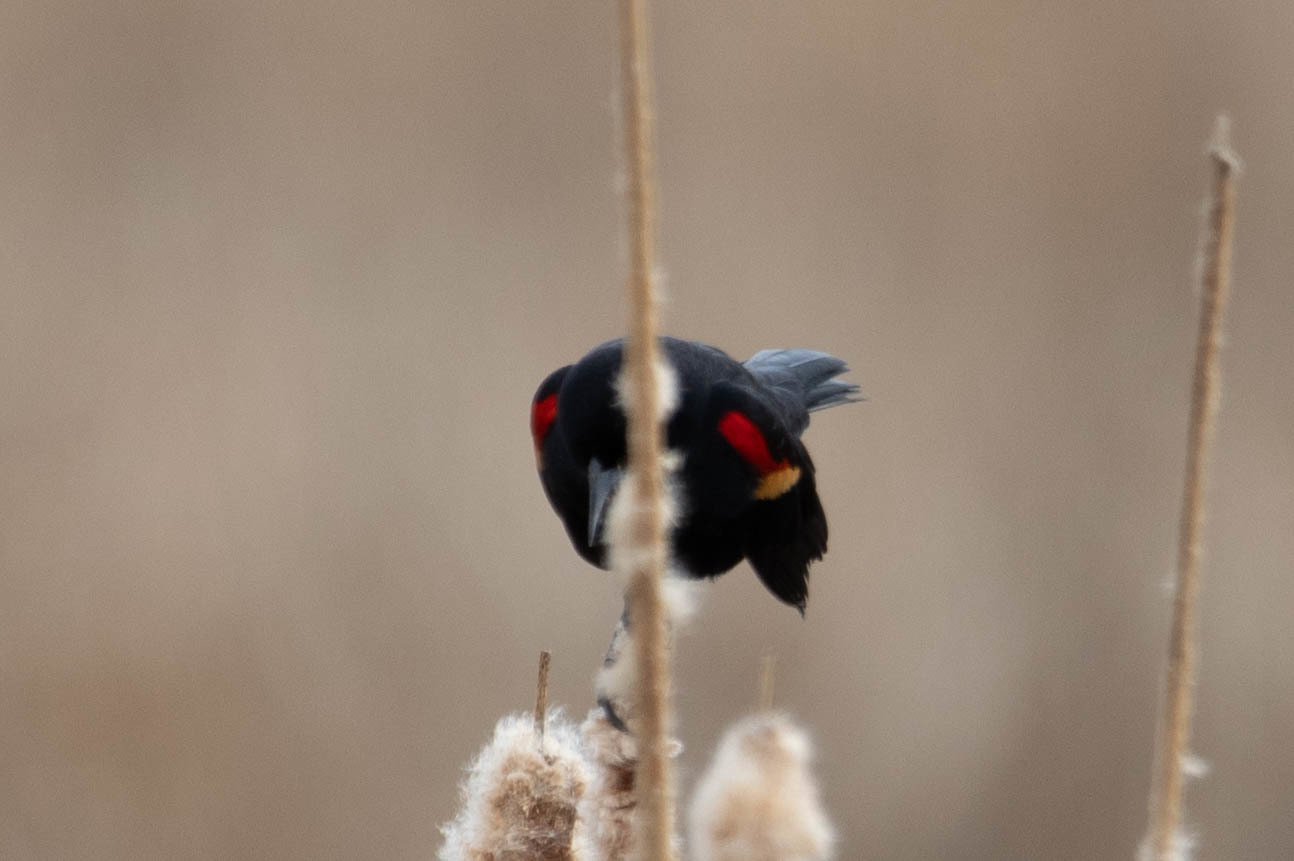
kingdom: Animalia
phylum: Chordata
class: Aves
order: Passeriformes
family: Icteridae
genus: Agelaius
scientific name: Agelaius phoeniceus
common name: Red-winged blackbird
